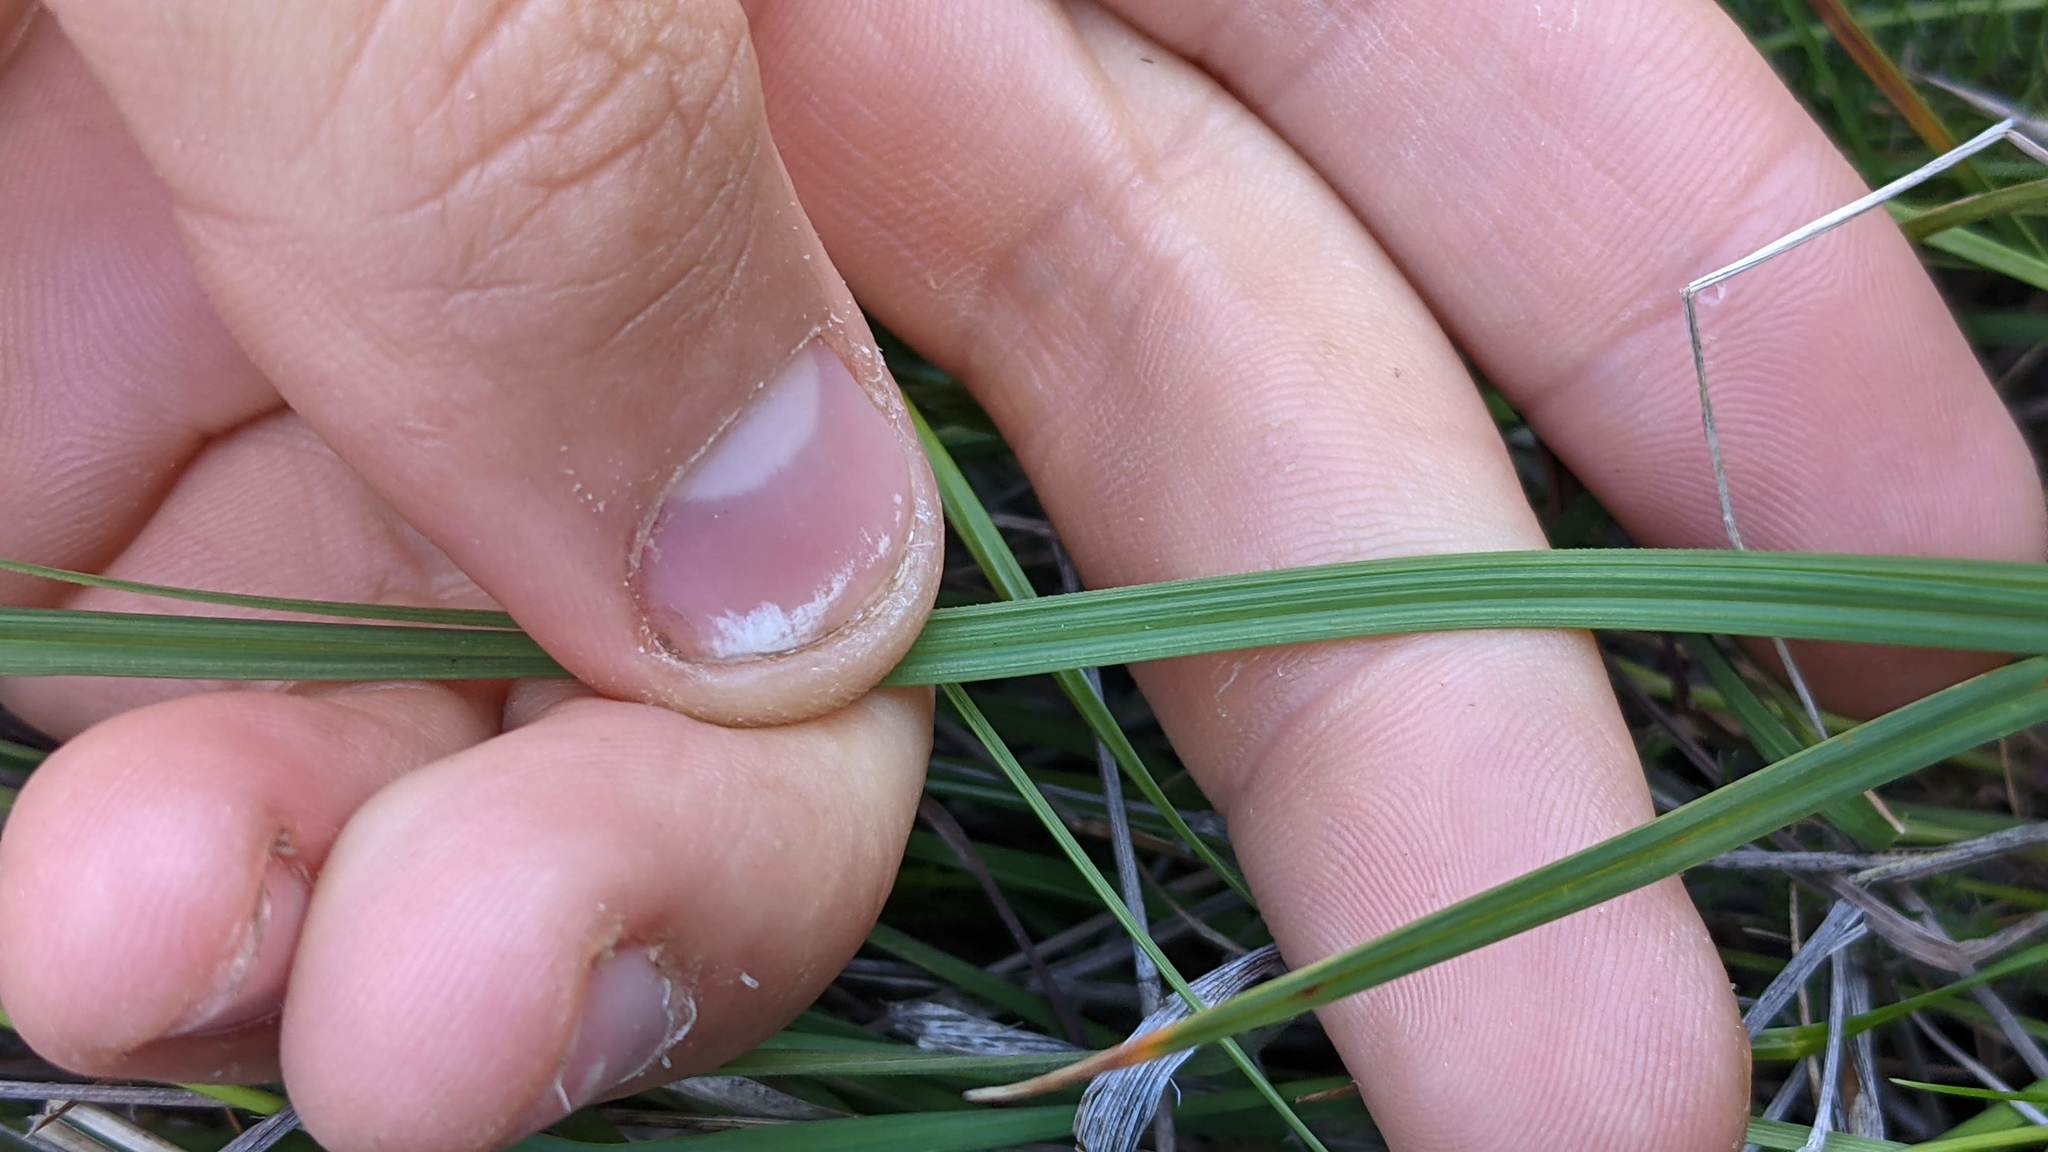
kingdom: Plantae
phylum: Tracheophyta
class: Liliopsida
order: Poales
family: Cyperaceae
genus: Carex
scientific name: Carex serratodens
